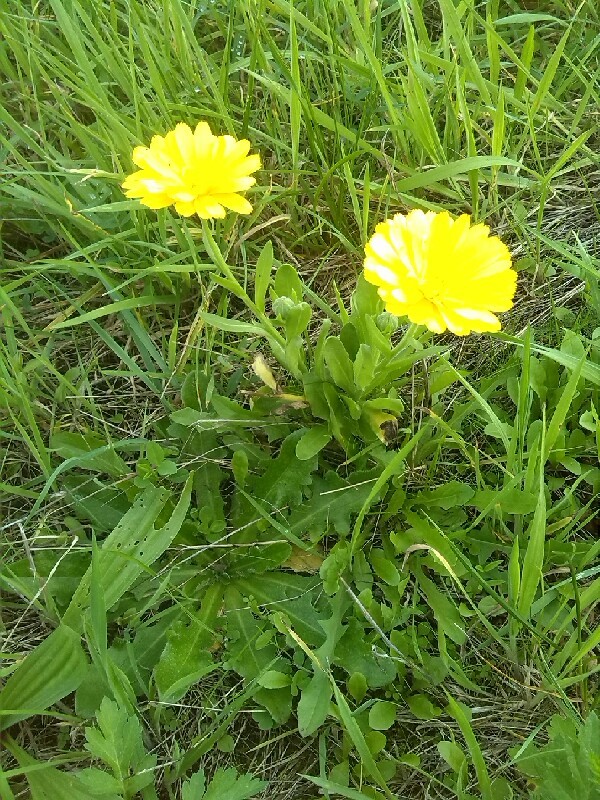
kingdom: Plantae
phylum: Tracheophyta
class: Magnoliopsida
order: Asterales
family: Asteraceae
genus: Calendula
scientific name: Calendula officinalis
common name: Pot marigold
